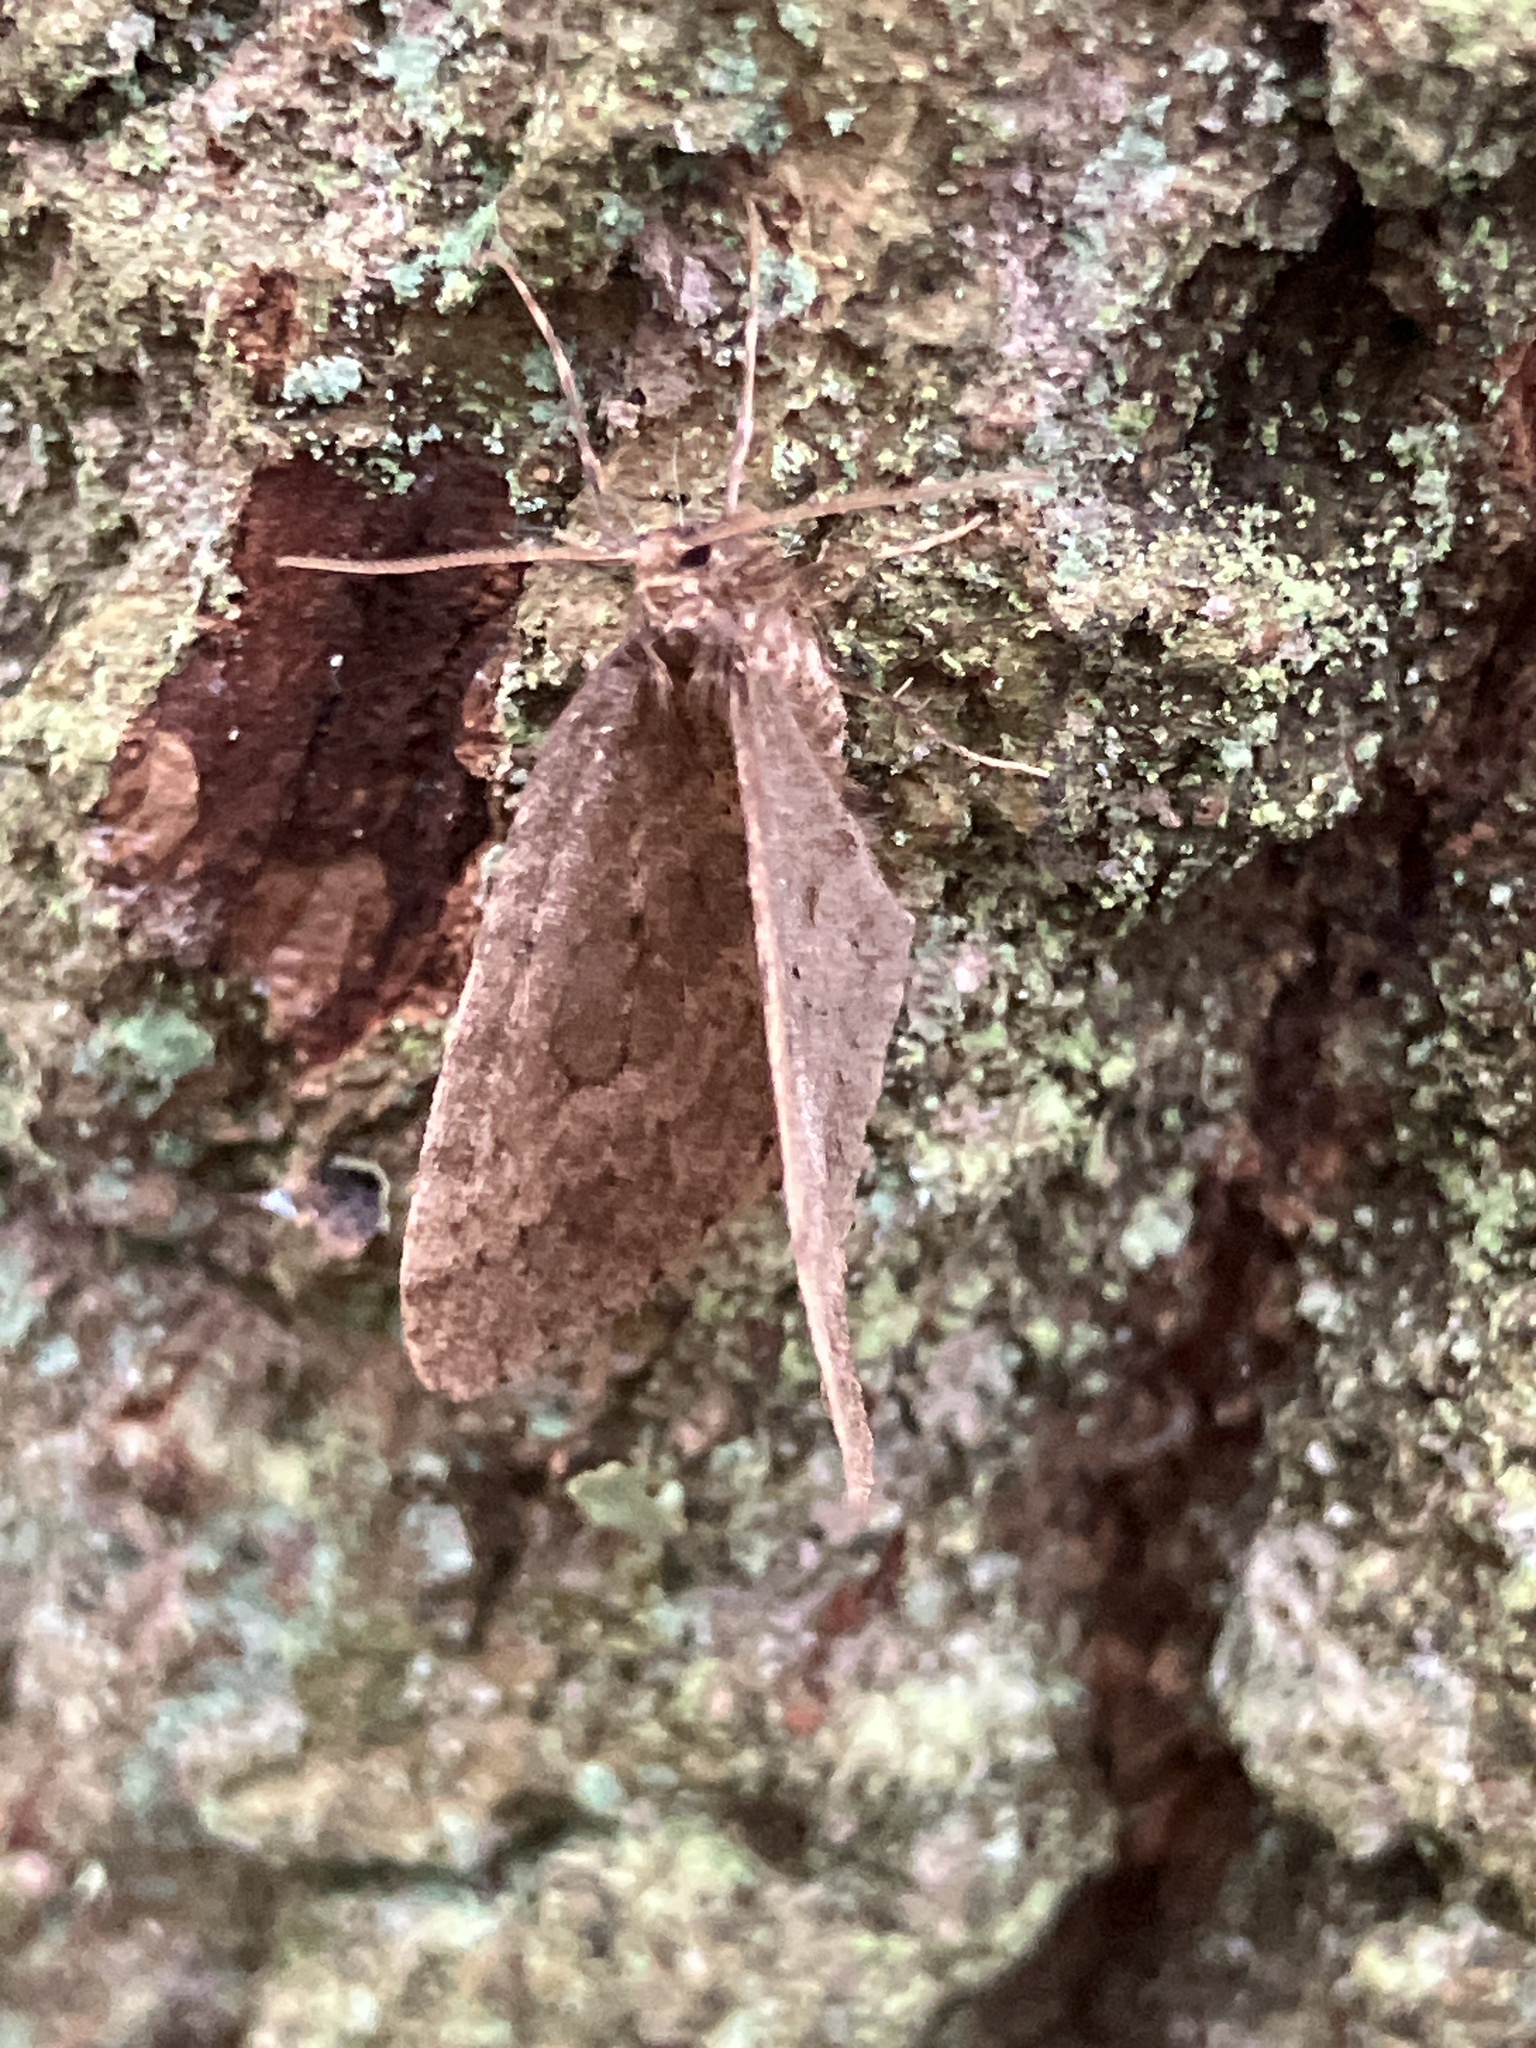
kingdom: Animalia
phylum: Arthropoda
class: Insecta
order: Lepidoptera
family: Geometridae
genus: Operophtera
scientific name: Operophtera brumata
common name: Winter moth
